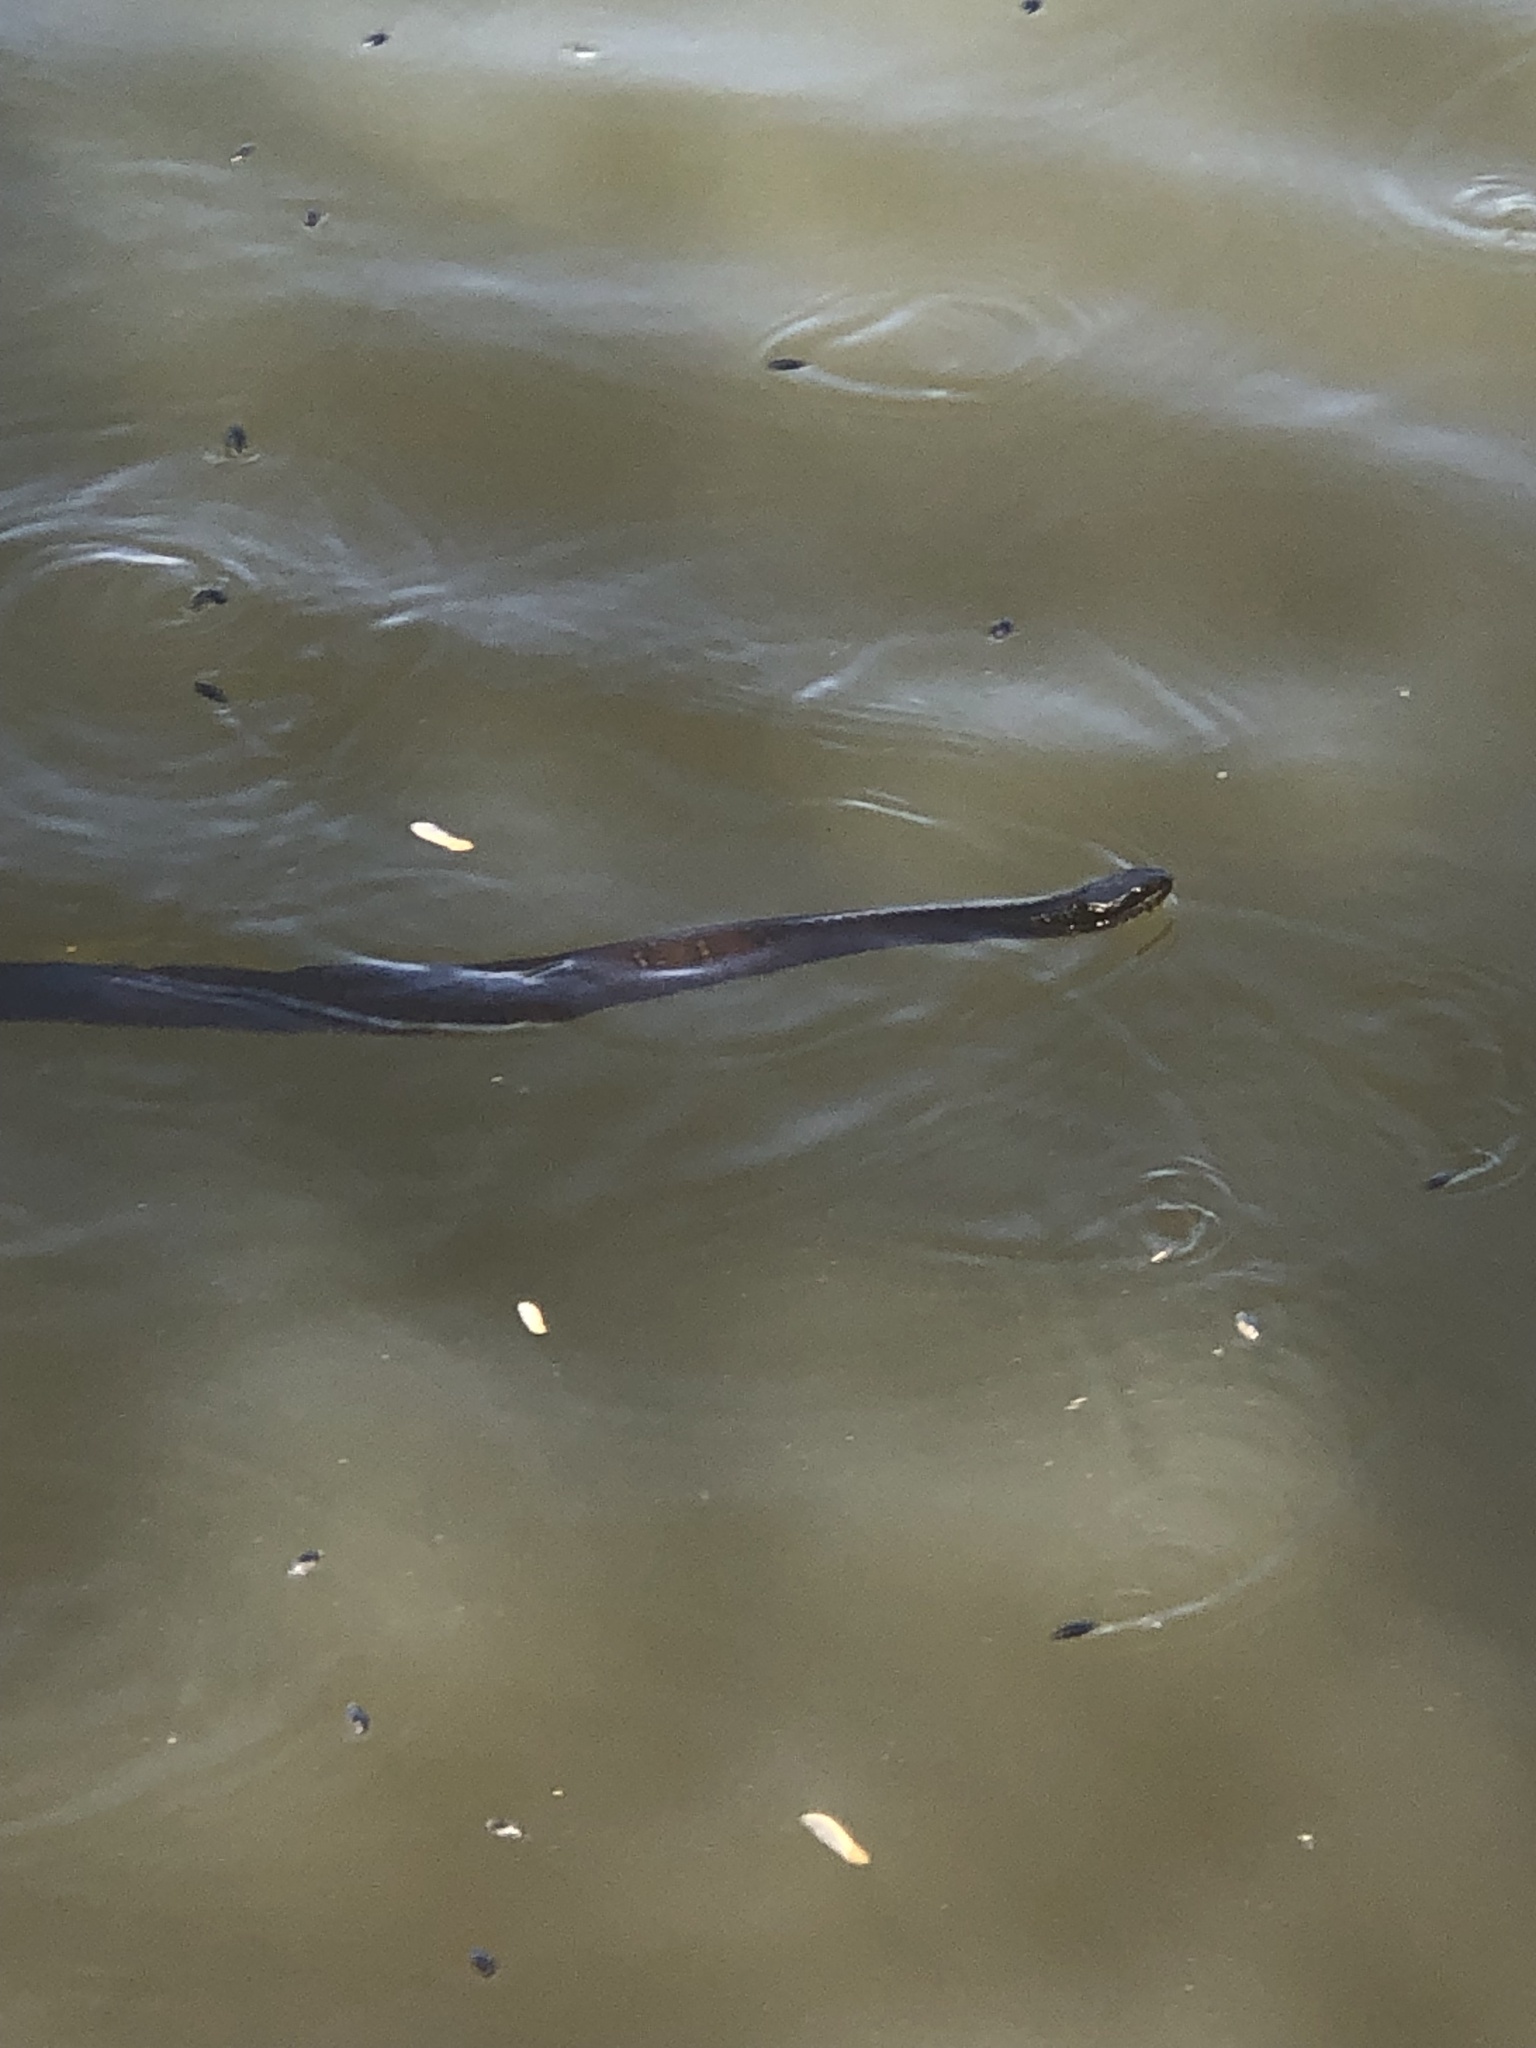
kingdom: Animalia
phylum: Chordata
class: Squamata
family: Colubridae
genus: Nerodia
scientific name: Nerodia sipedon
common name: Northern water snake
